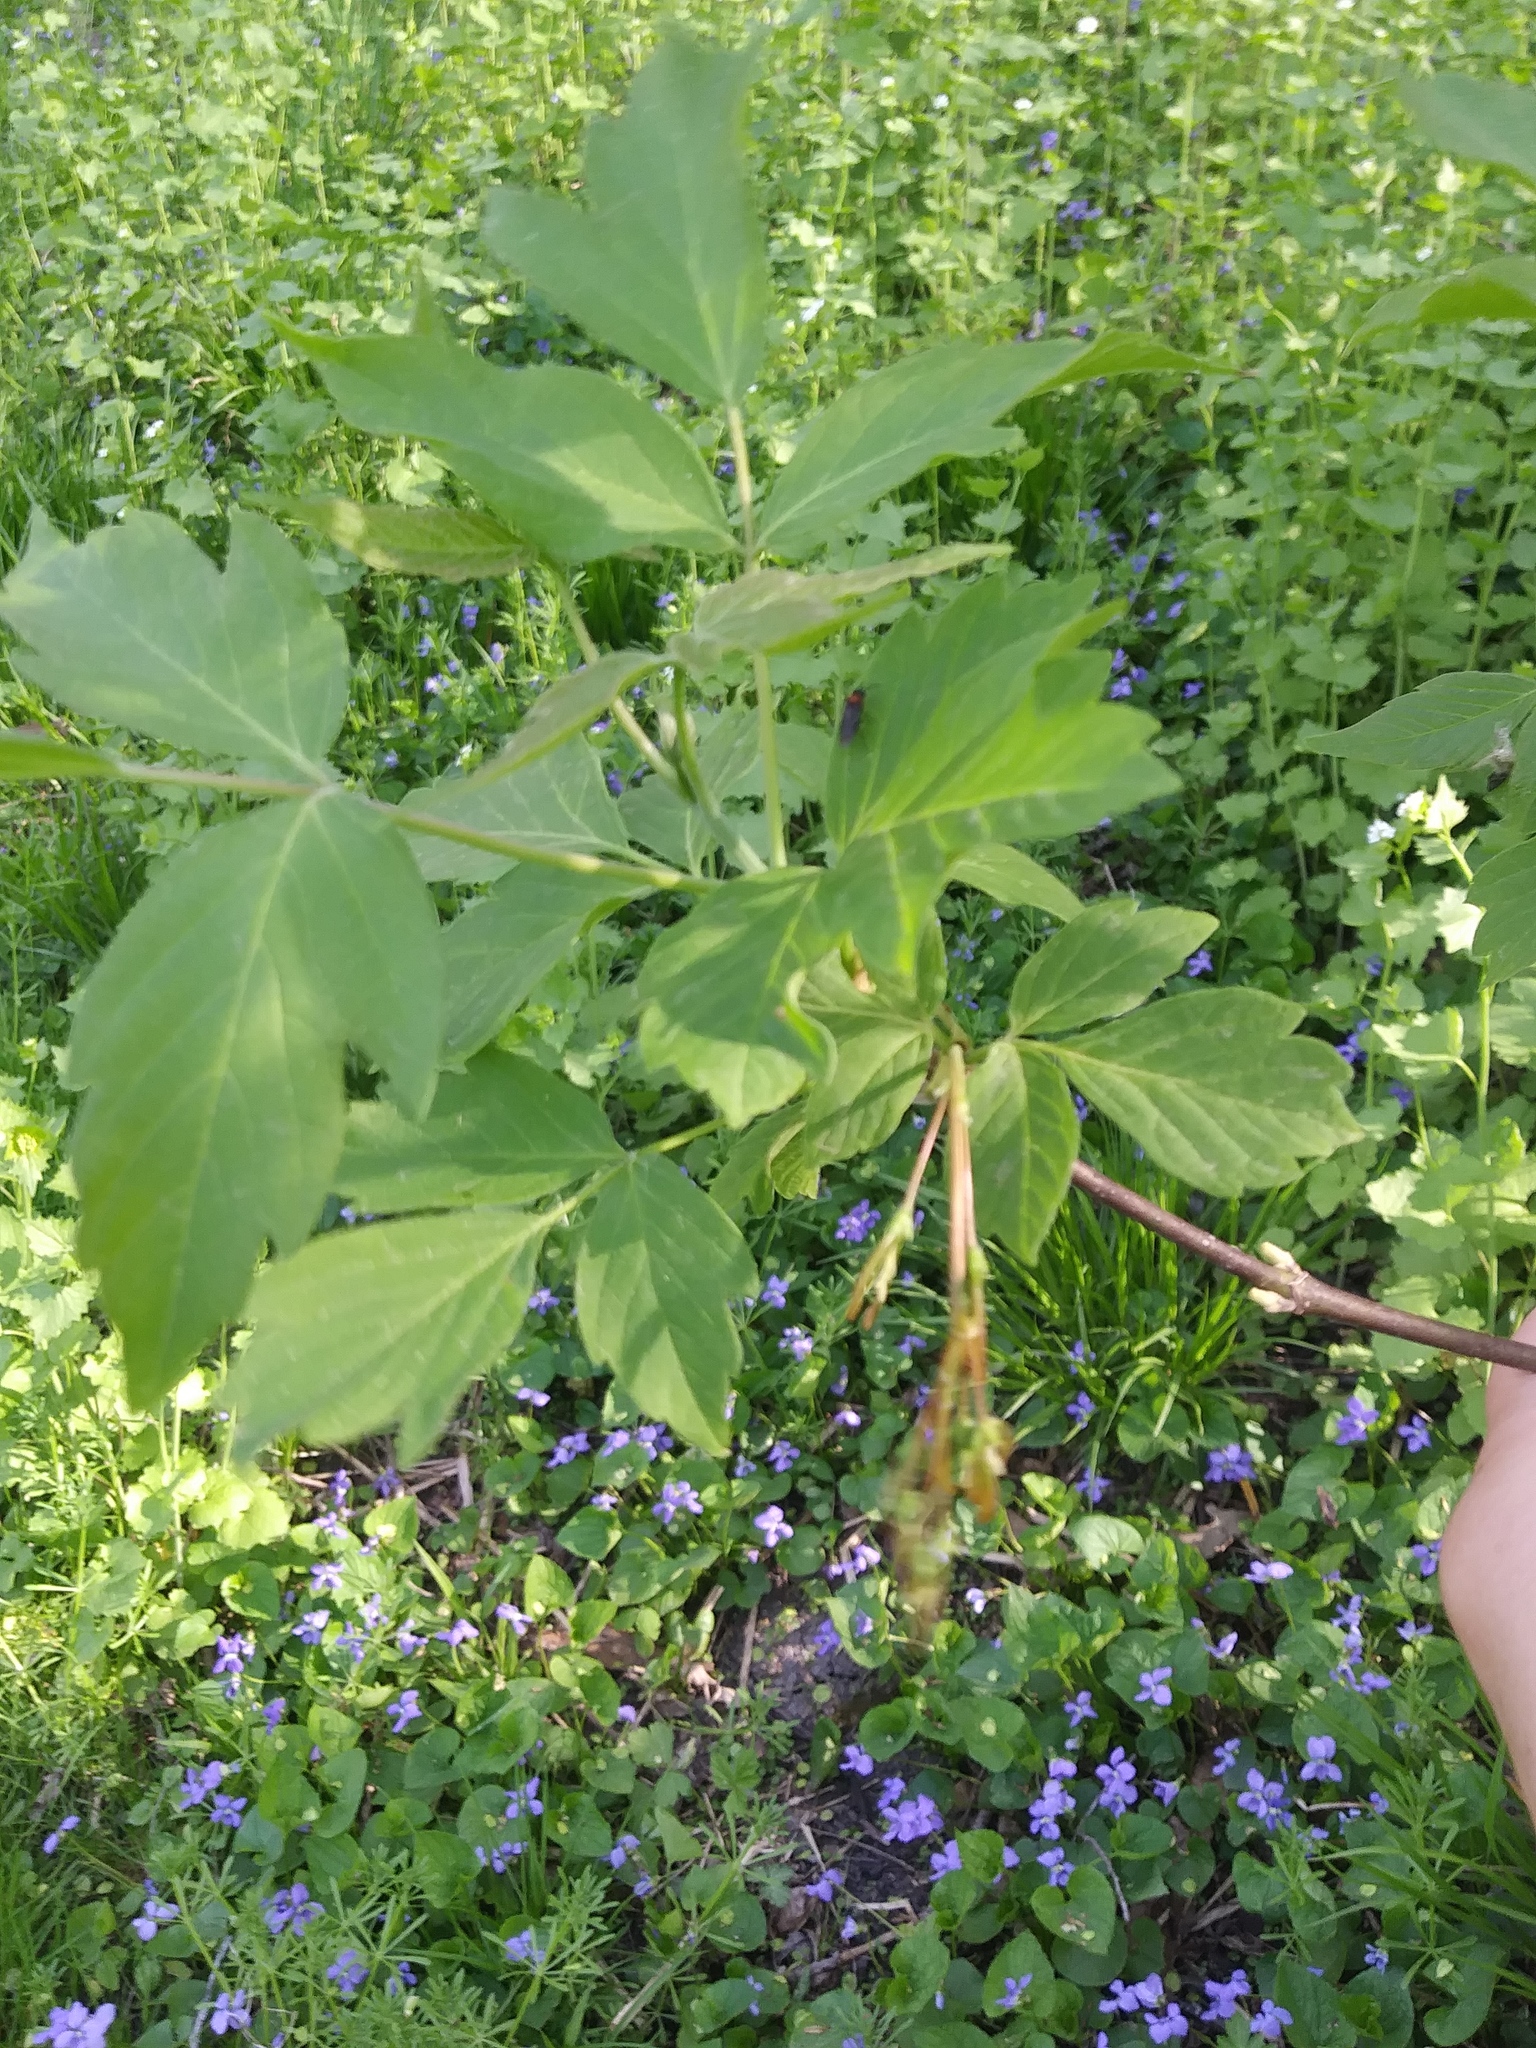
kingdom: Plantae
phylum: Tracheophyta
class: Magnoliopsida
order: Sapindales
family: Sapindaceae
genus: Acer
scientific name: Acer negundo
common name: Ashleaf maple
